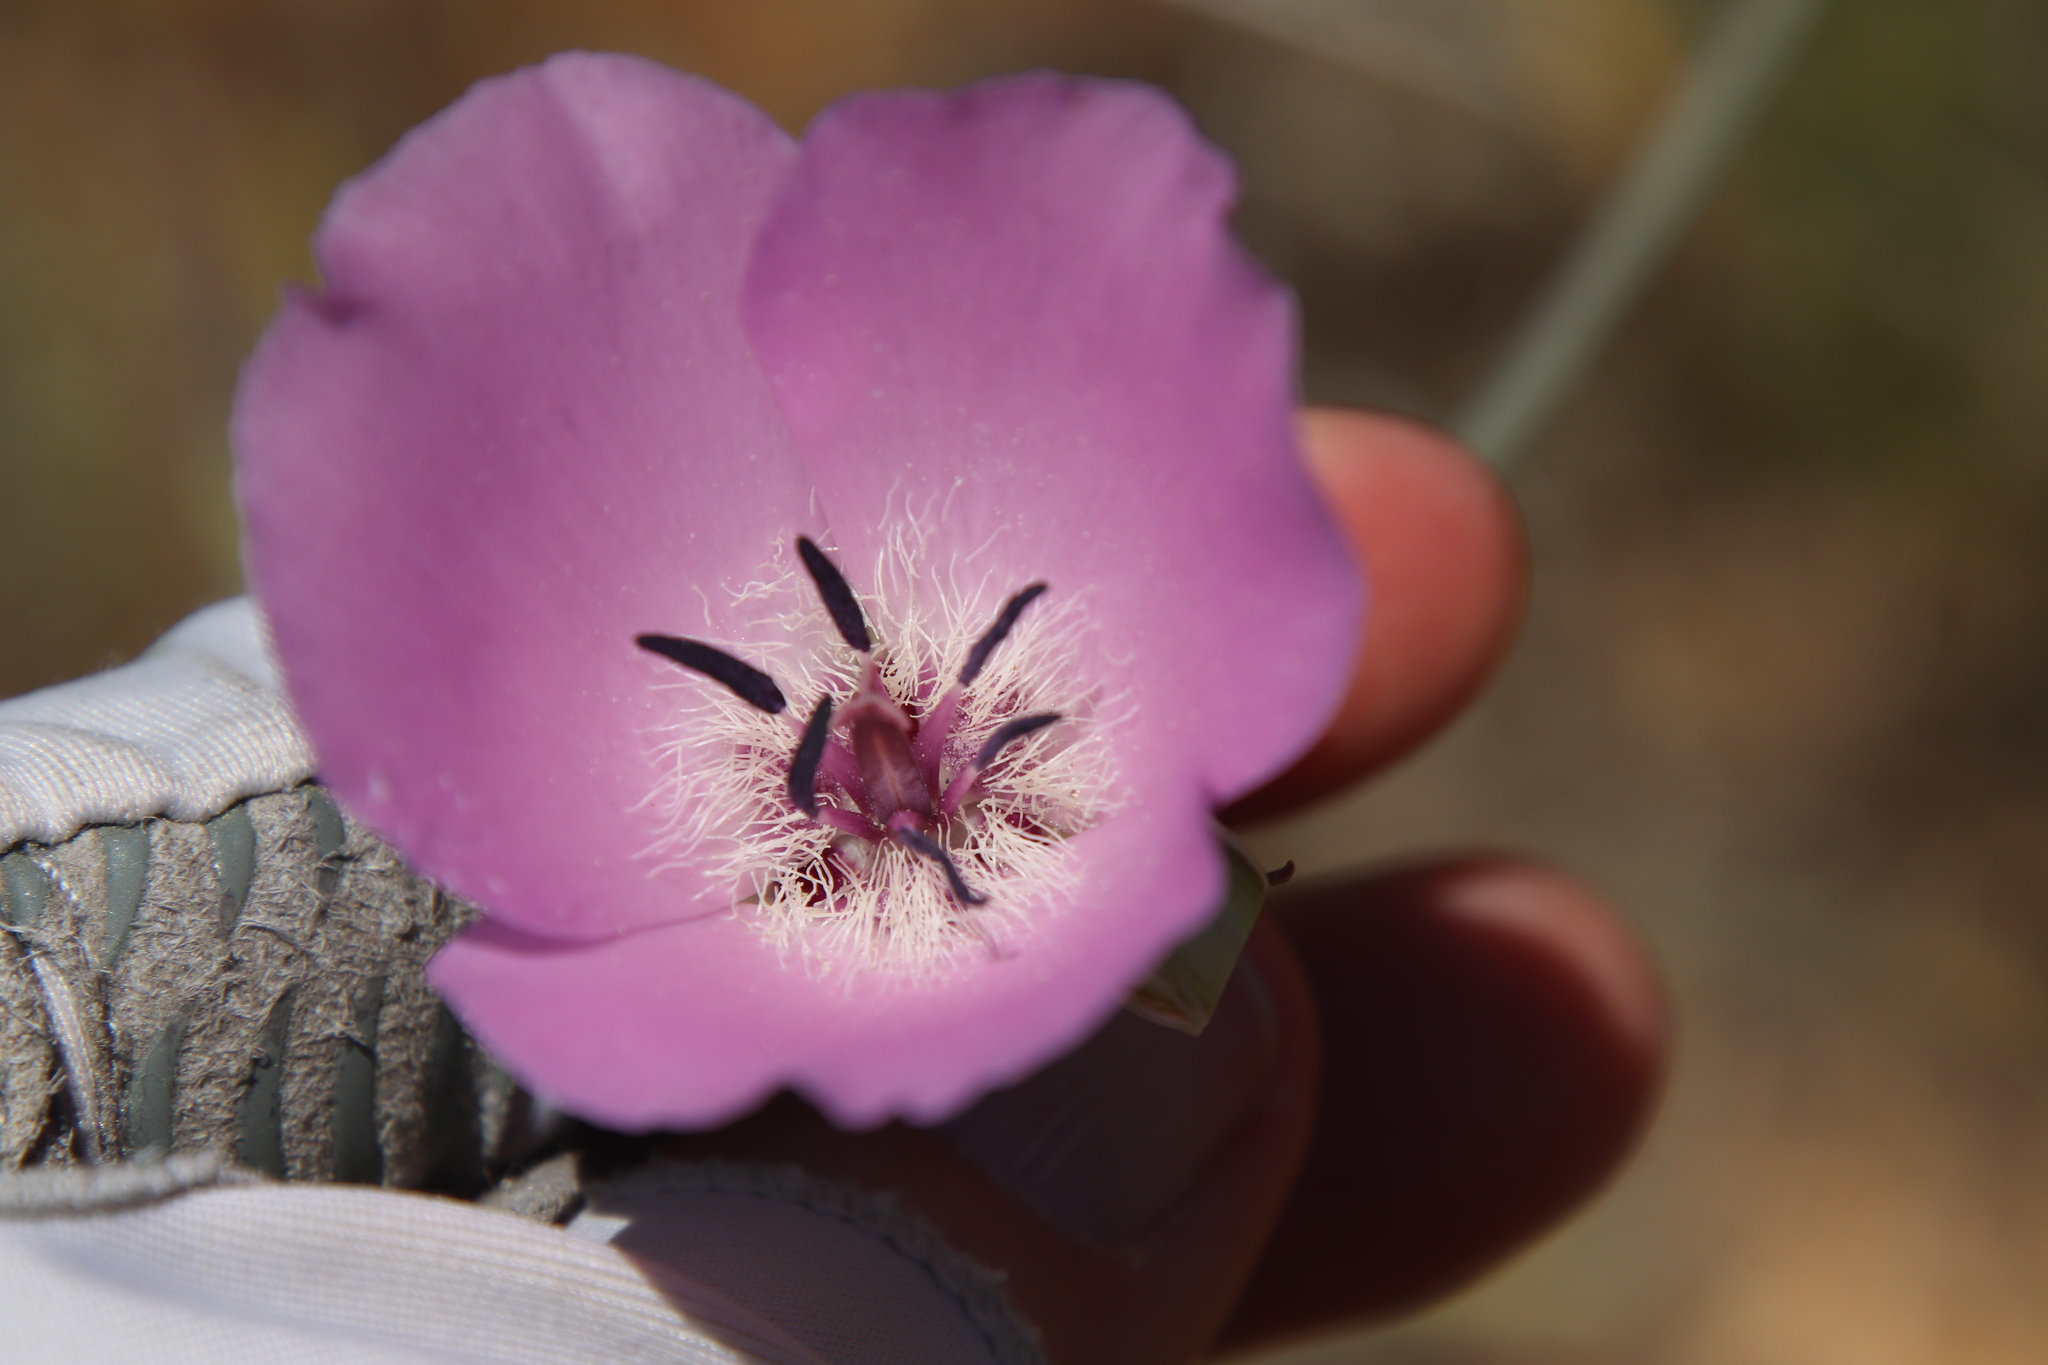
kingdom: Plantae
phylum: Tracheophyta
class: Liliopsida
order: Liliales
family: Liliaceae
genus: Calochortus
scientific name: Calochortus splendens
